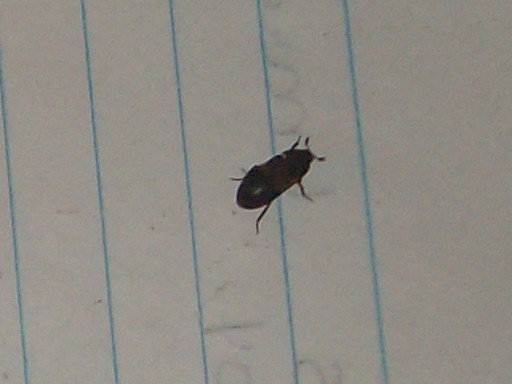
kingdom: Animalia
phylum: Arthropoda
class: Insecta
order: Coleoptera
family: Dermestidae
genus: Dermestes
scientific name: Dermestes lardarius
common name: Larder beetle
